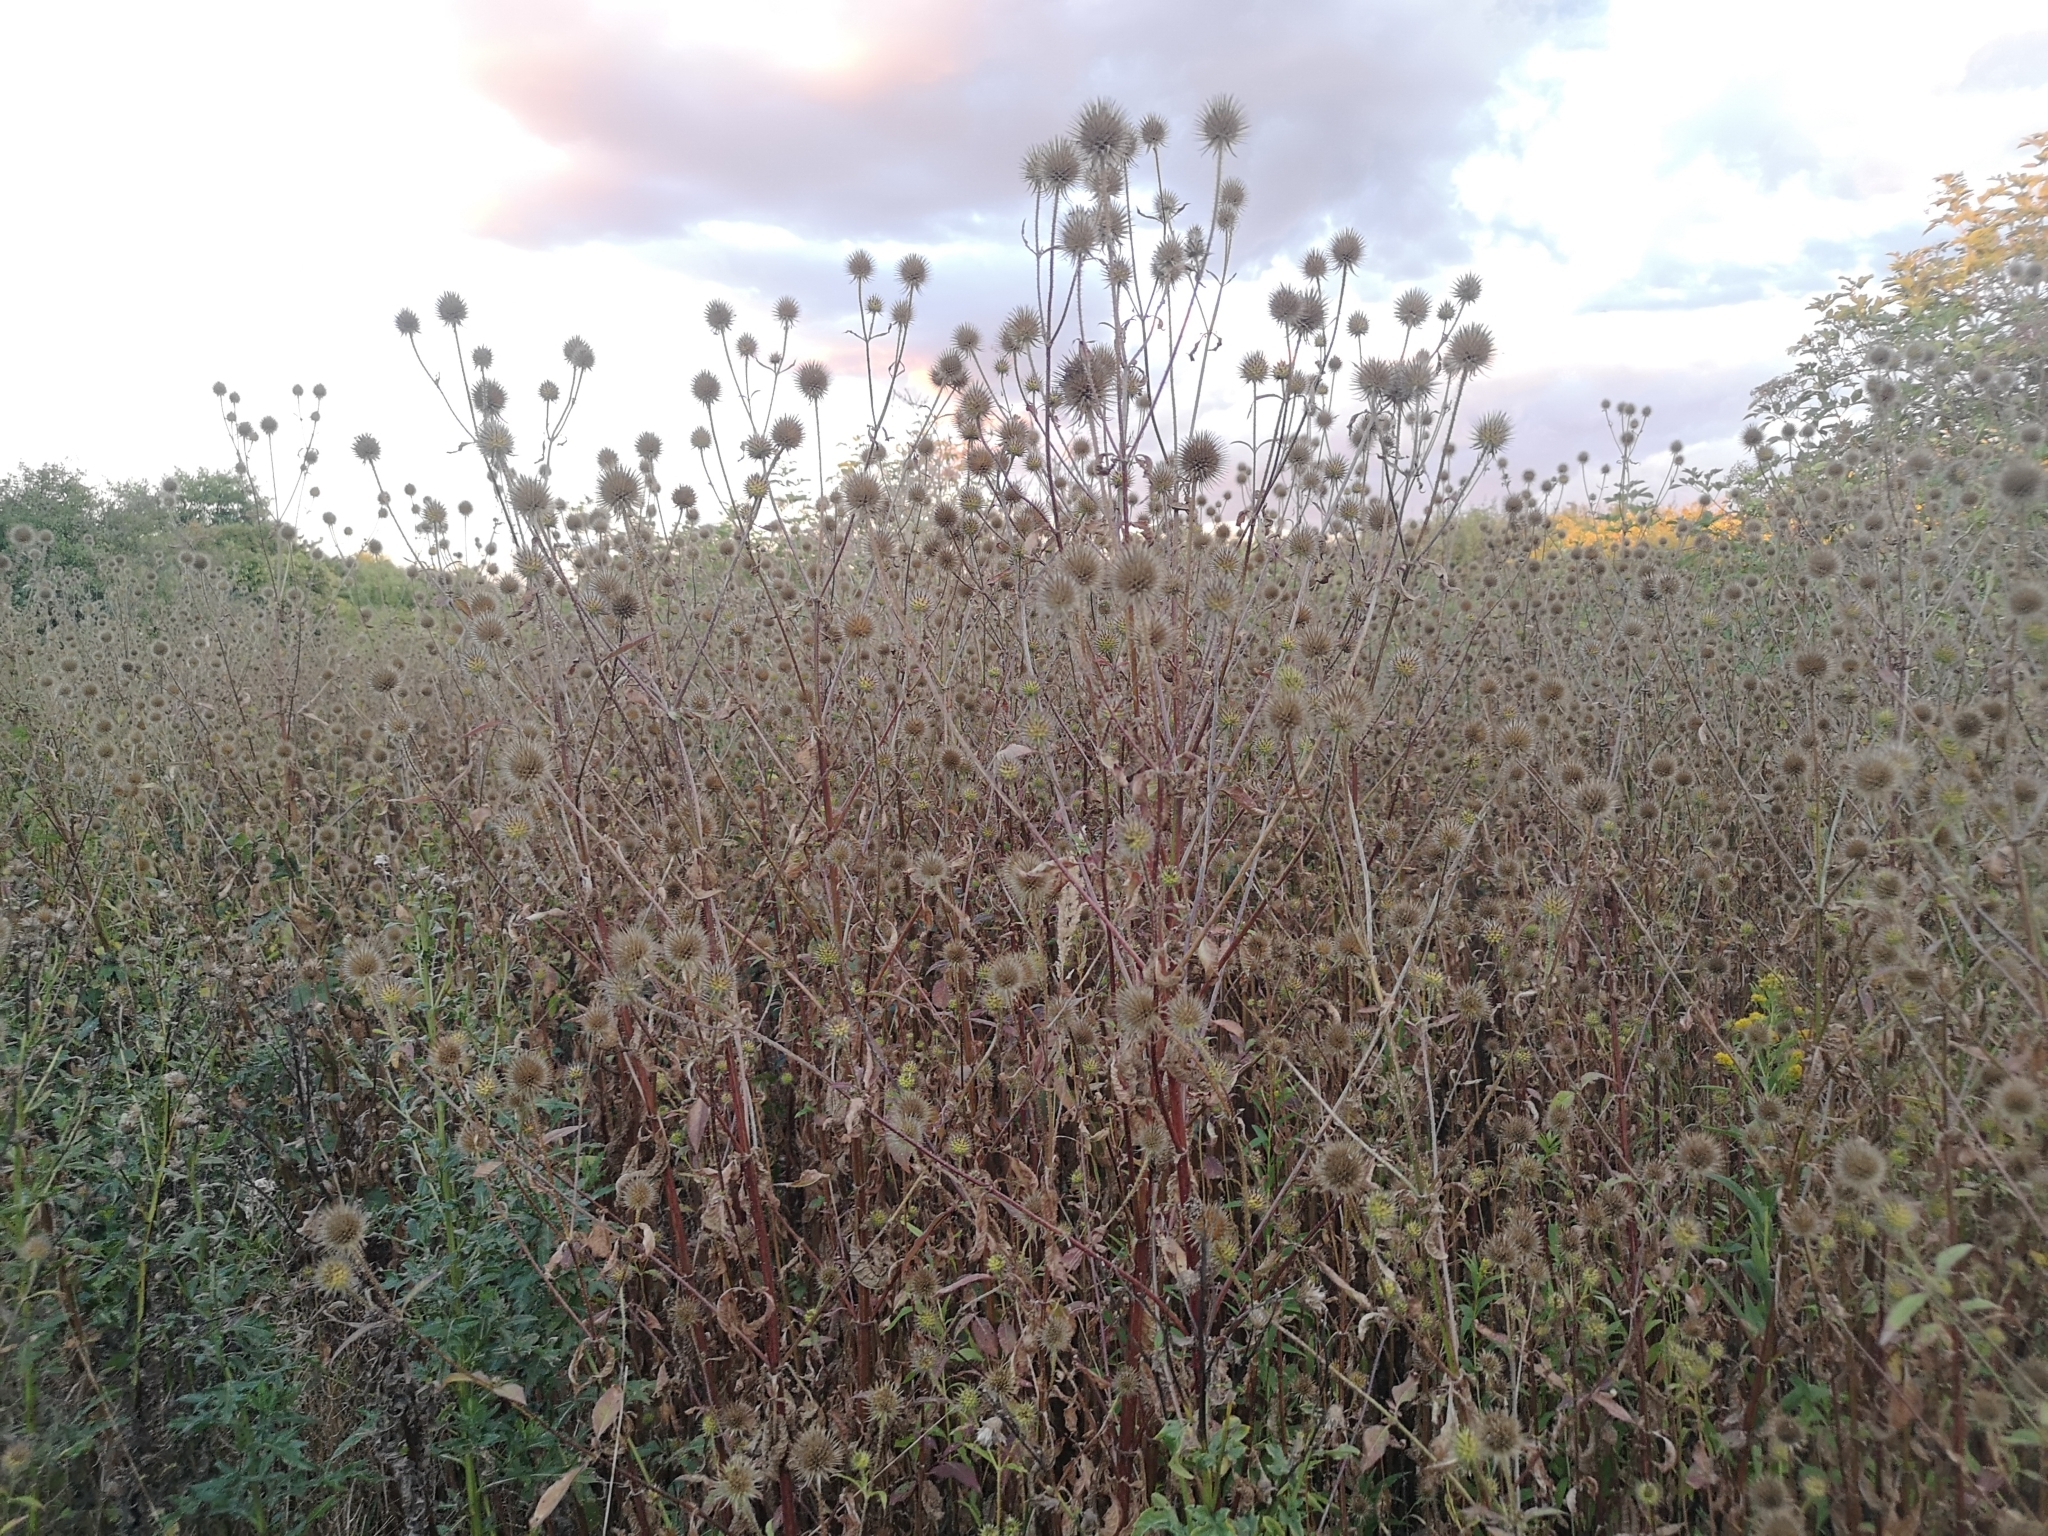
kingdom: Plantae
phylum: Tracheophyta
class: Magnoliopsida
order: Dipsacales
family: Caprifoliaceae
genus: Dipsacus
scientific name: Dipsacus strigosus
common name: Yellow-flowered teasel
